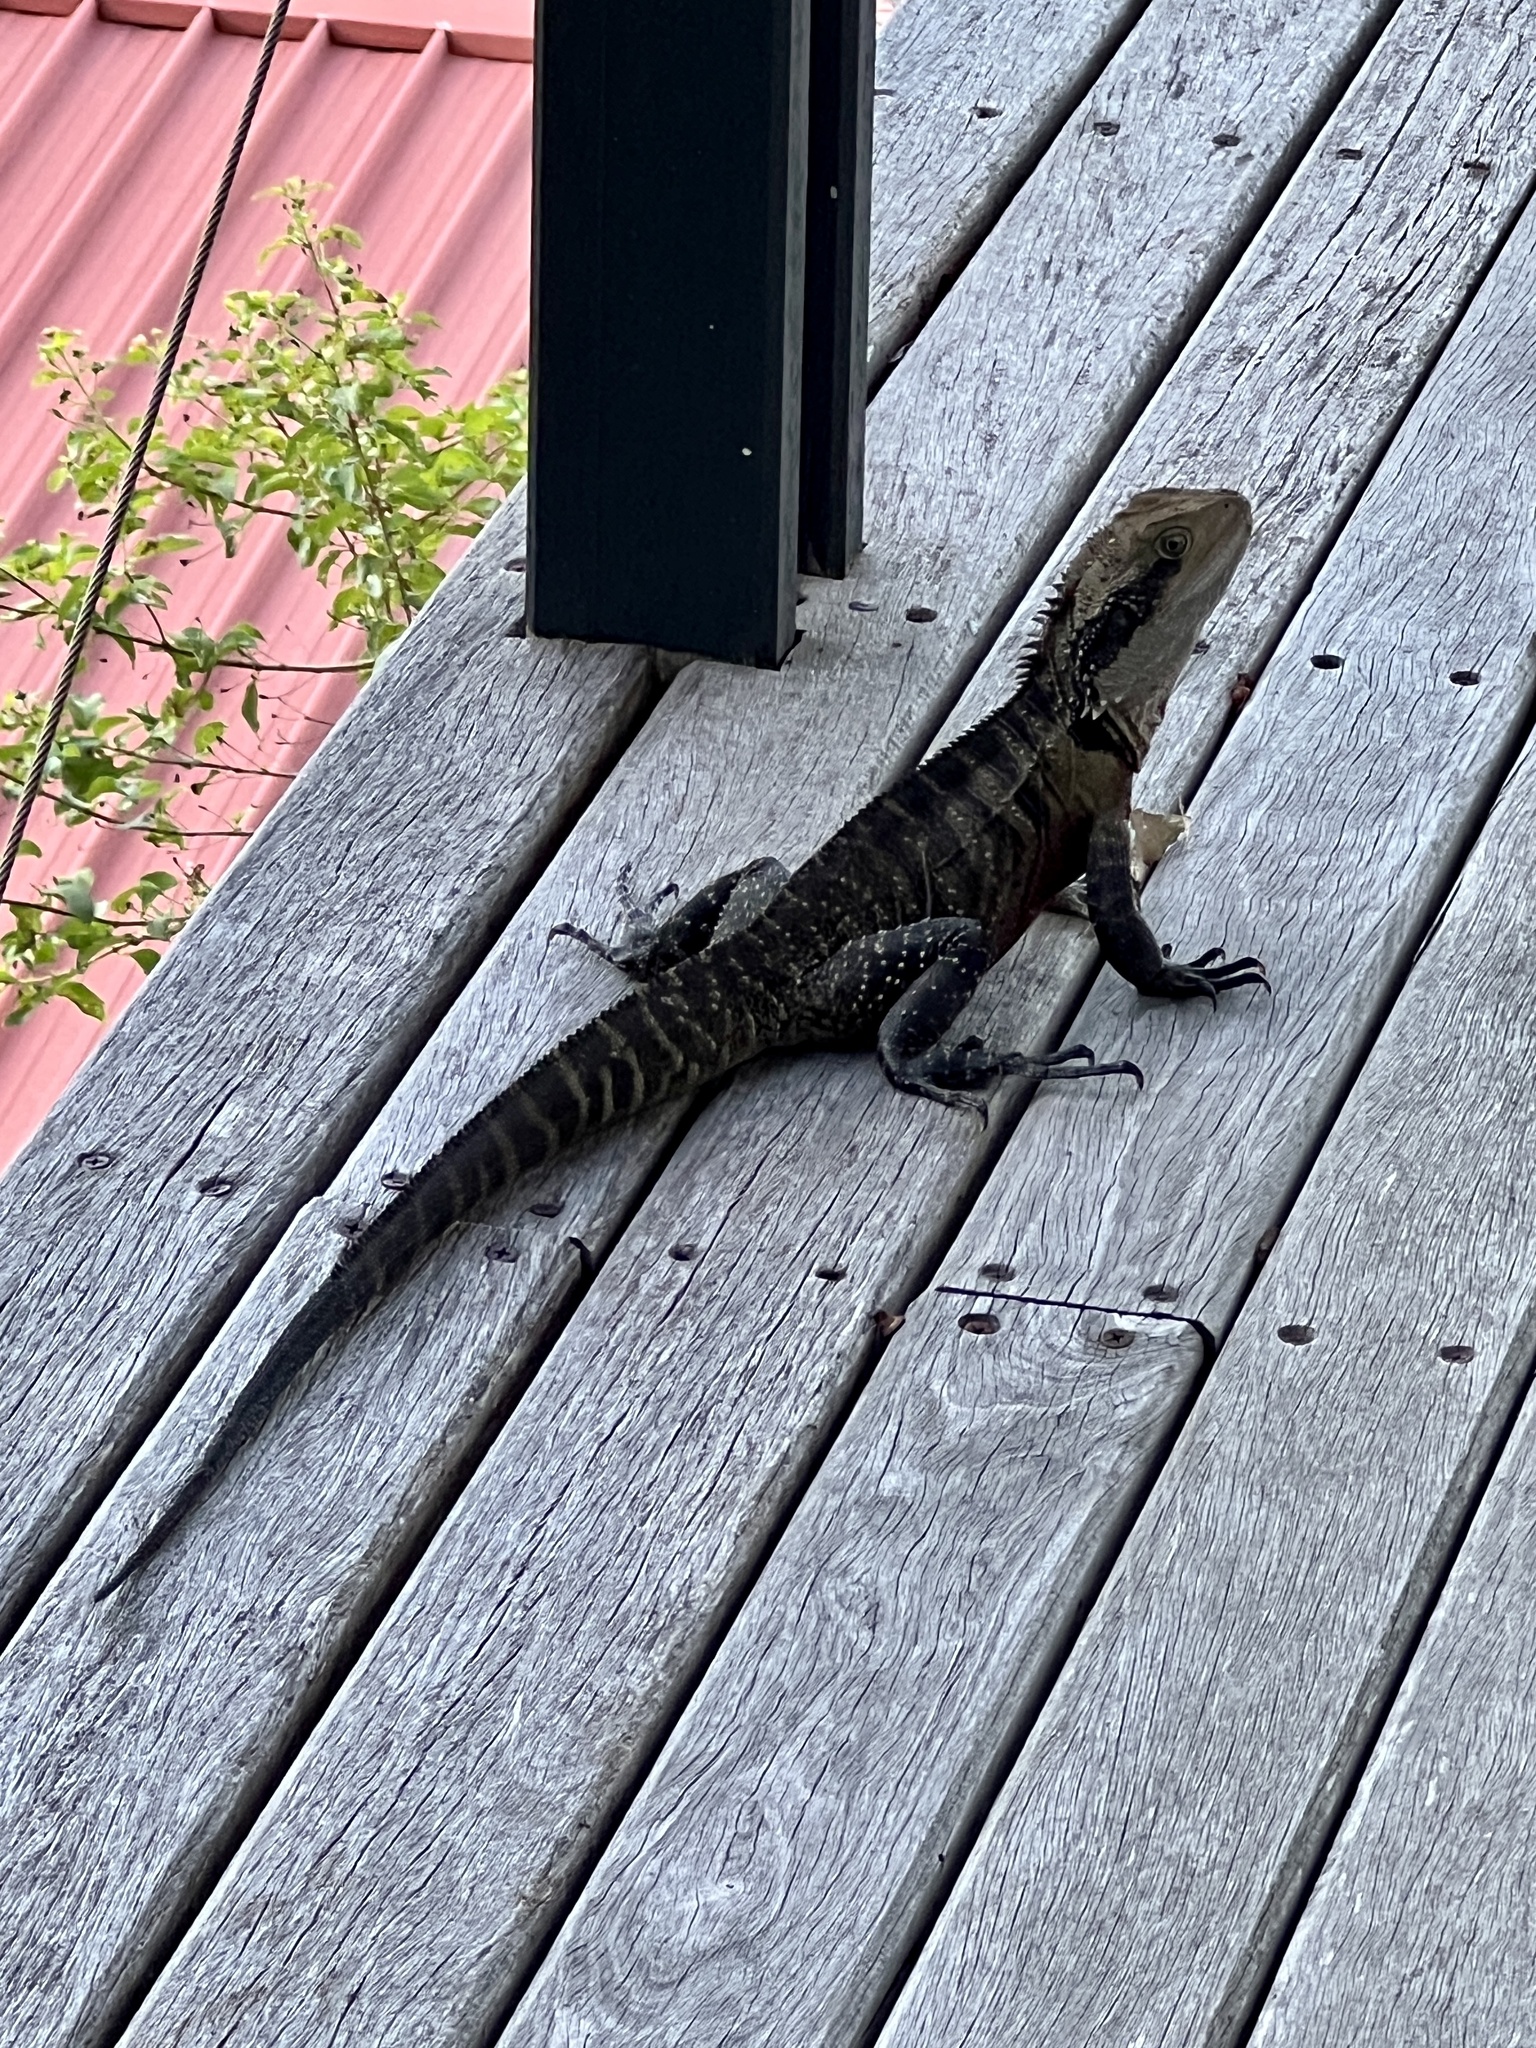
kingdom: Animalia
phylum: Chordata
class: Squamata
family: Agamidae
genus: Intellagama
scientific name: Intellagama lesueurii
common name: Eastern water dragon
